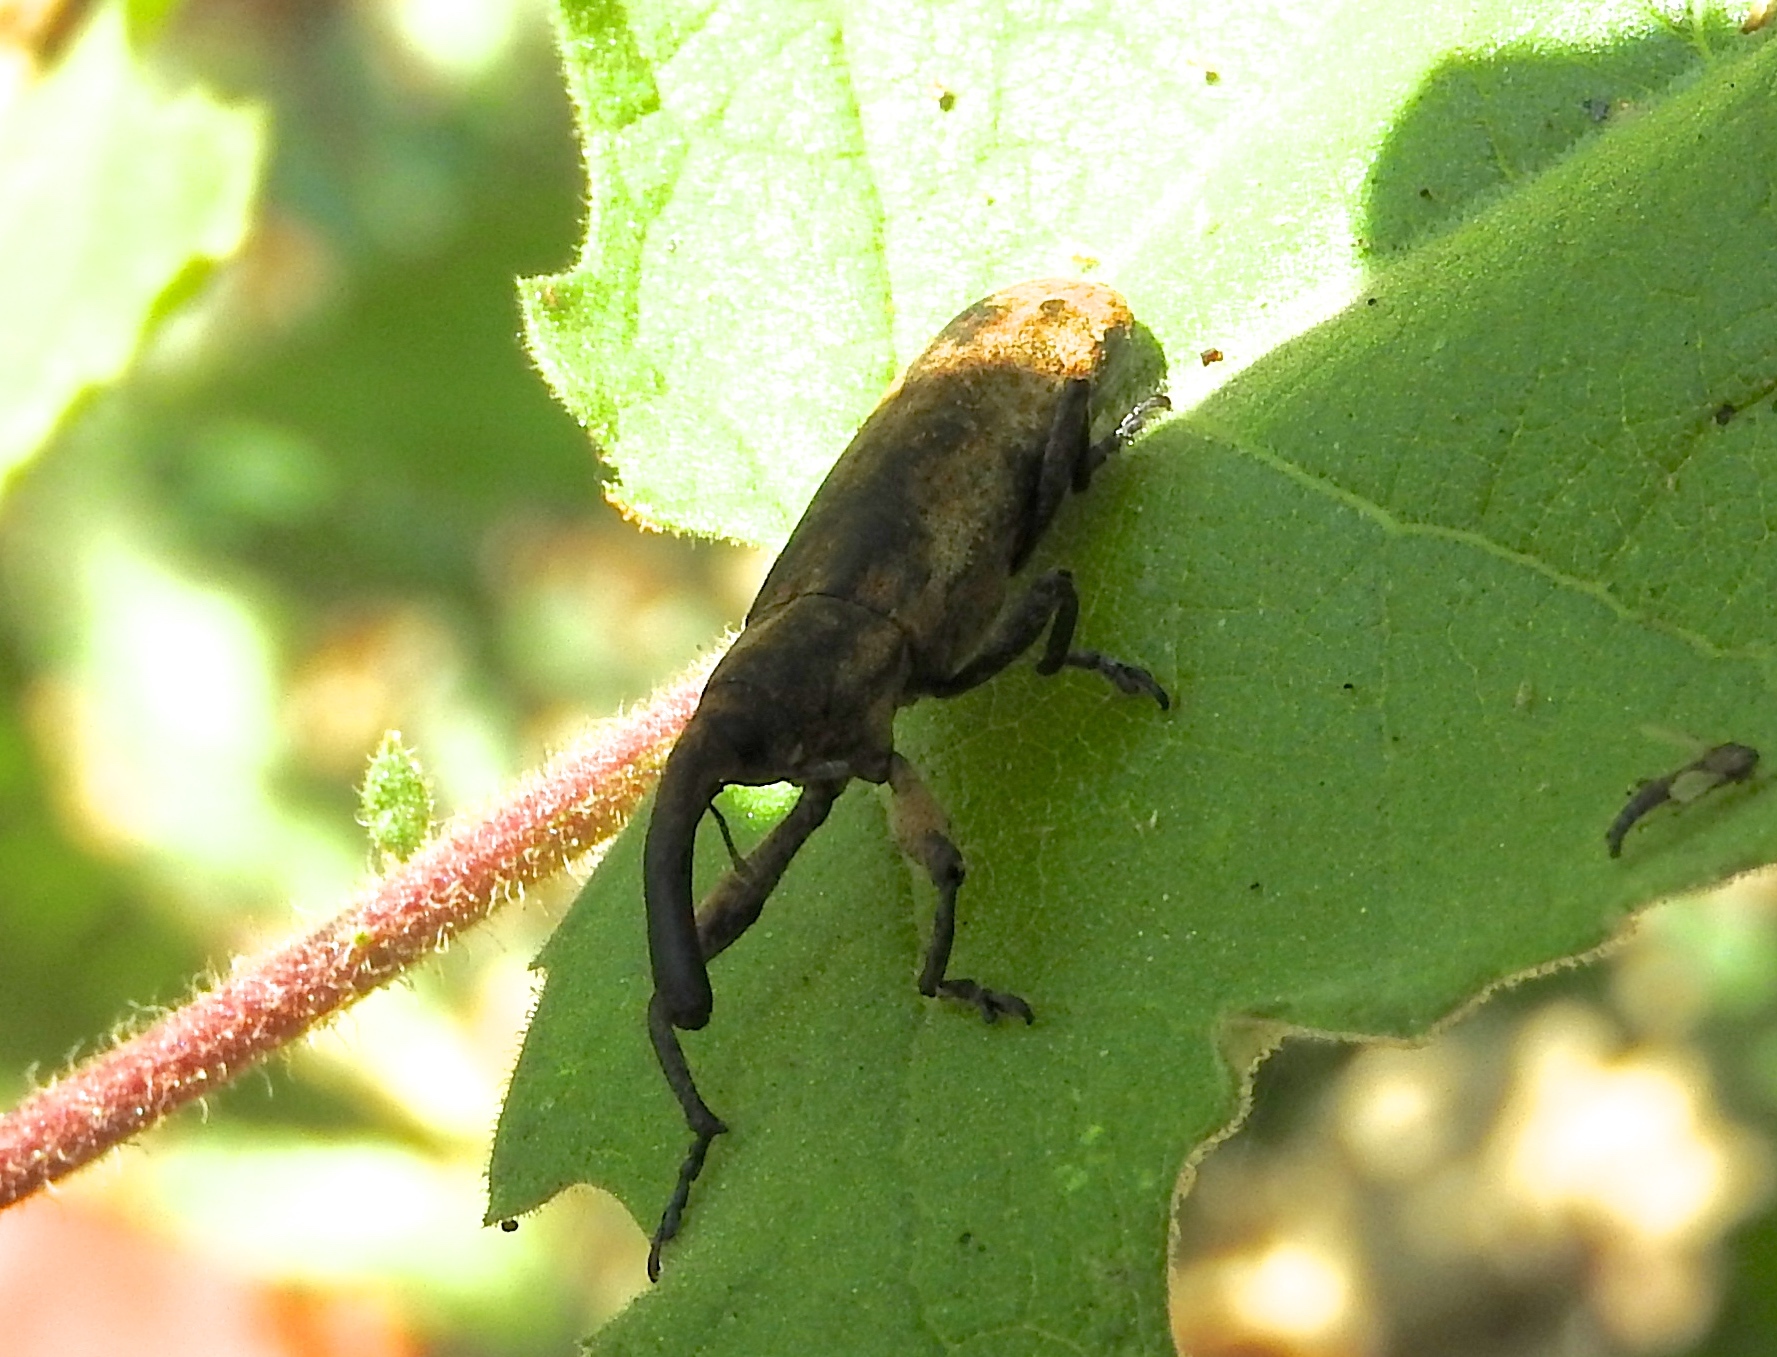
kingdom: Animalia
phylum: Arthropoda
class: Insecta
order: Coleoptera
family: Curculionidae
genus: Lixus
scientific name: Lixus
